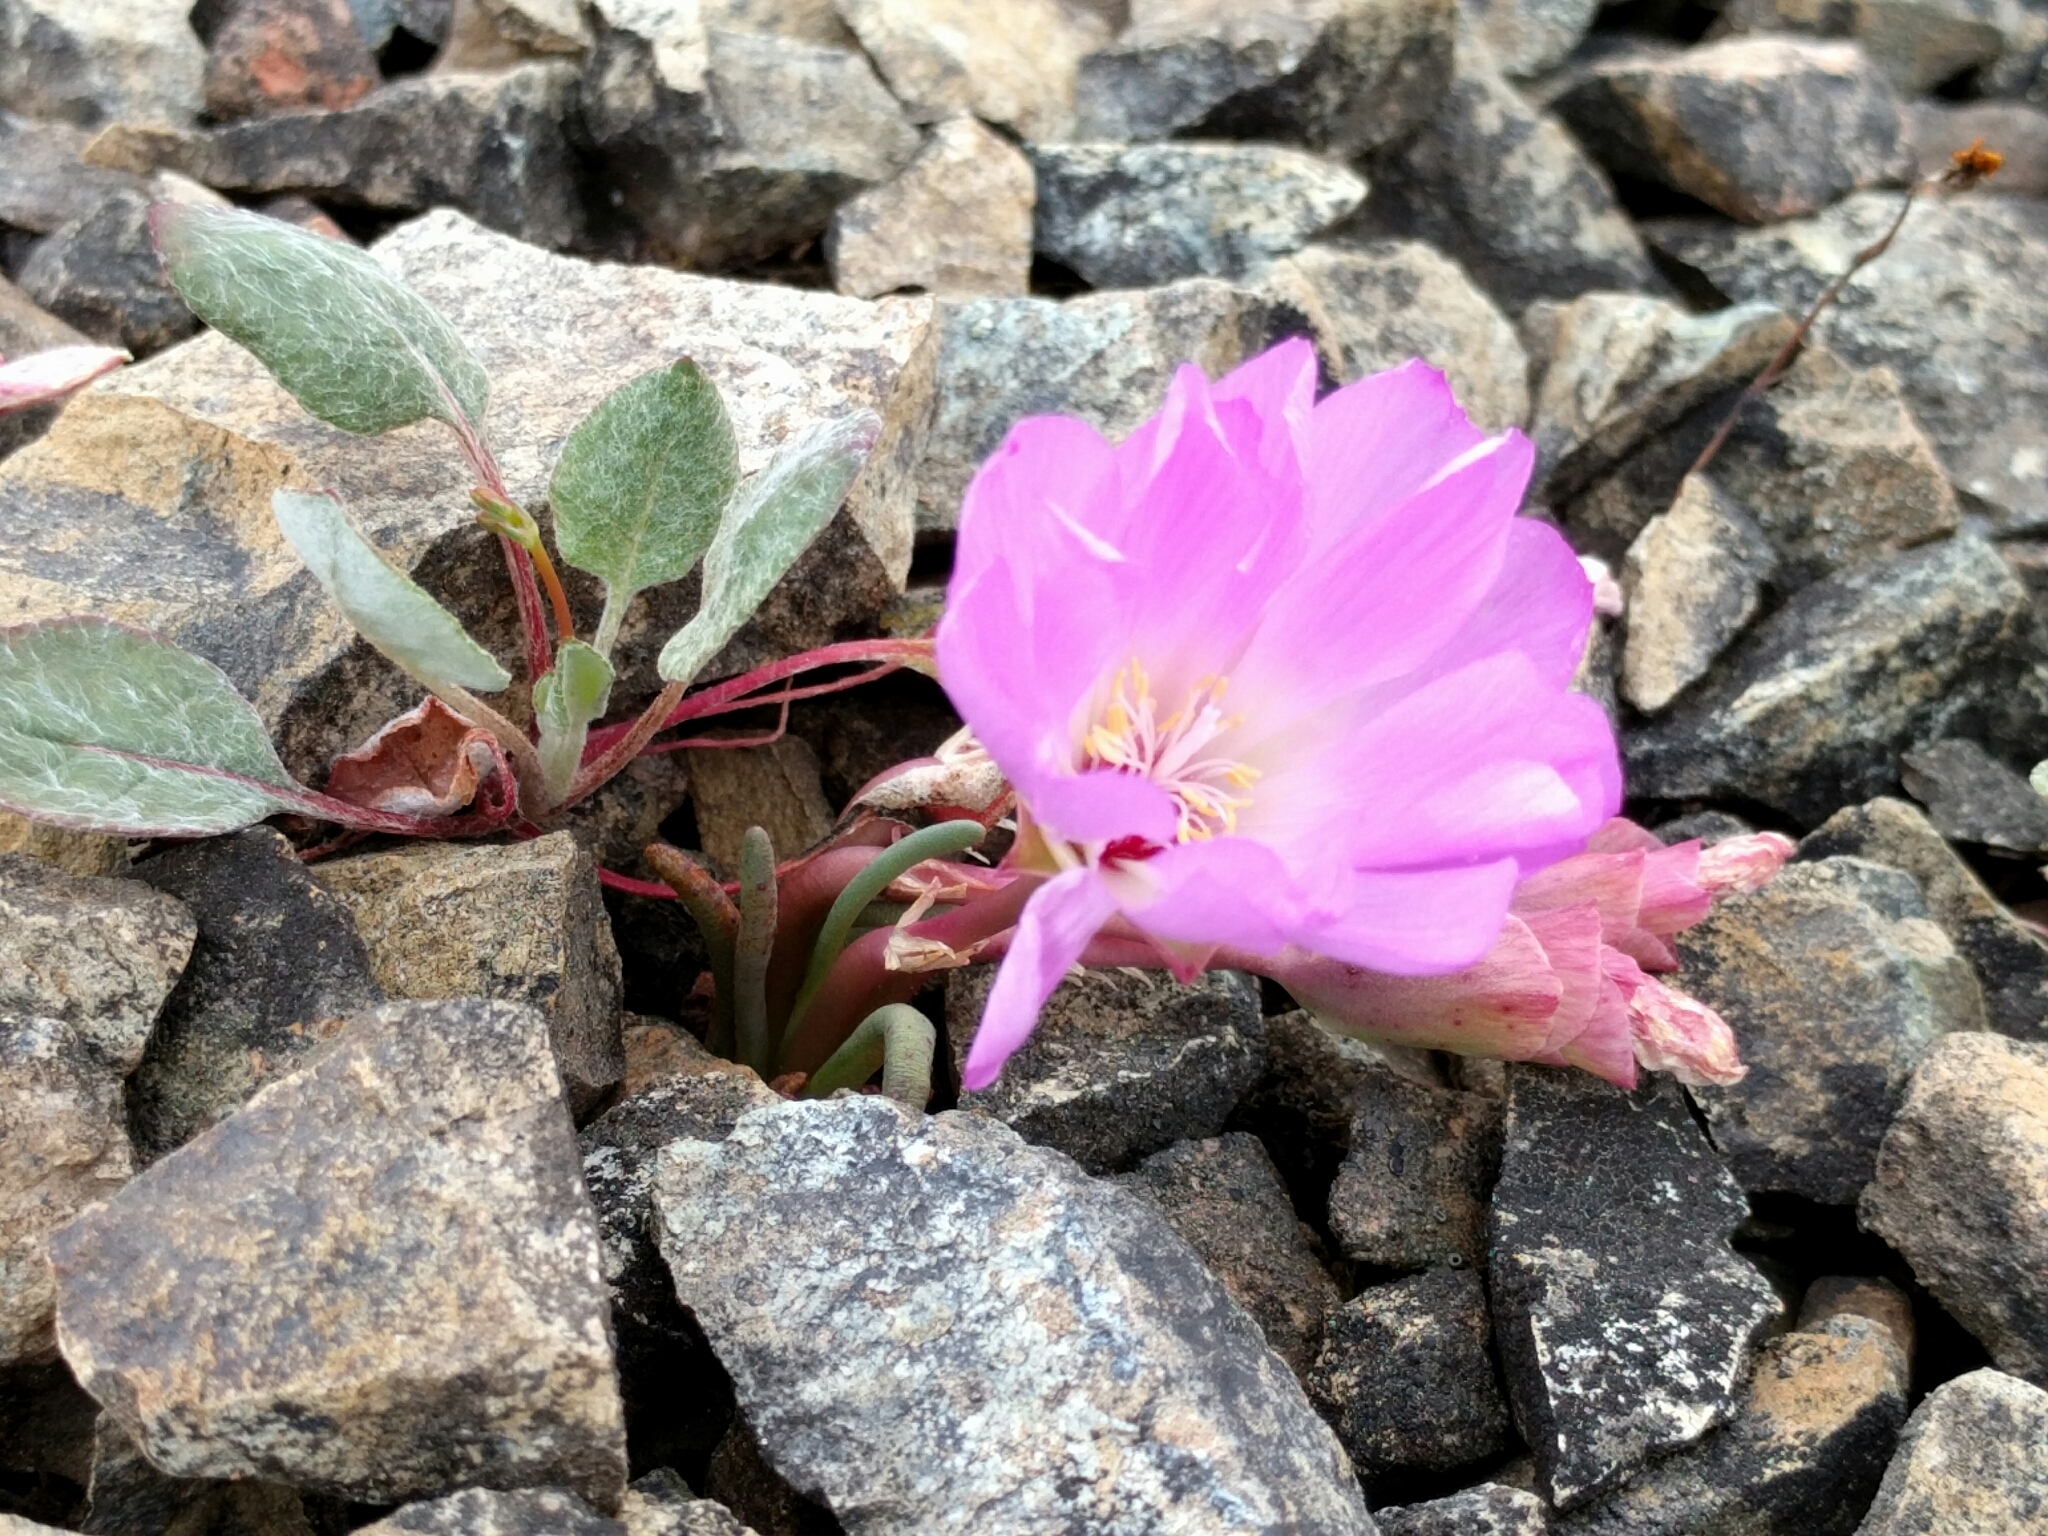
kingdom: Plantae
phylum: Tracheophyta
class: Magnoliopsida
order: Caryophyllales
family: Montiaceae
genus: Lewisia
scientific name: Lewisia rediviva
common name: Bitter-root
